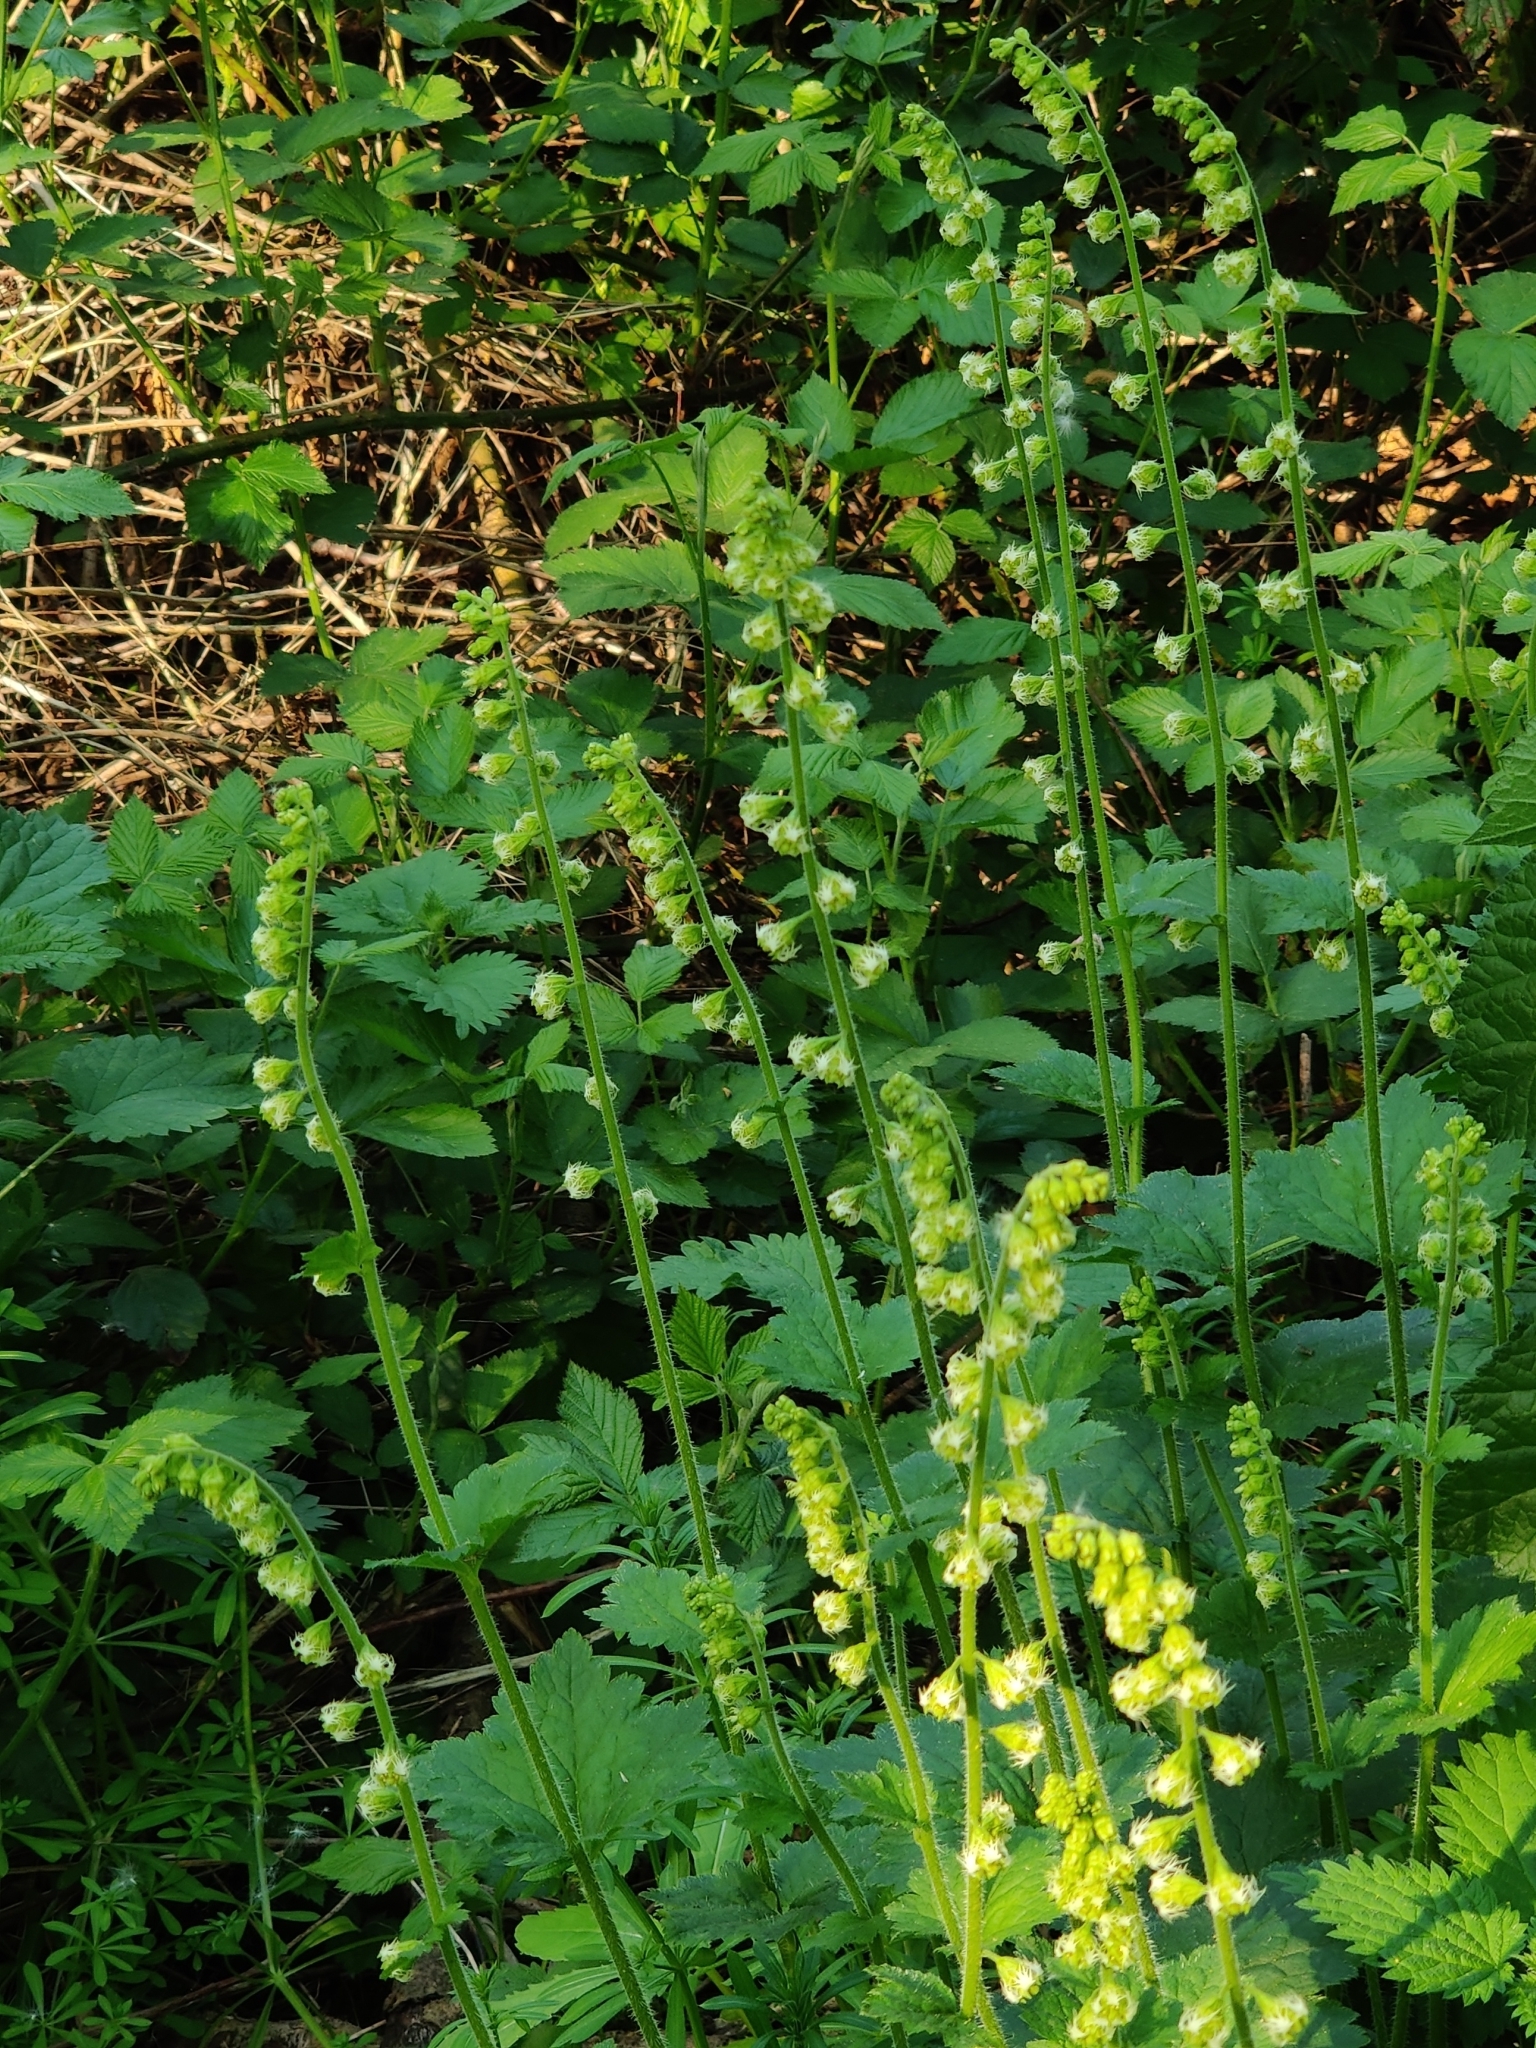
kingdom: Plantae
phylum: Tracheophyta
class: Magnoliopsida
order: Saxifragales
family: Saxifragaceae
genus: Tellima
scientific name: Tellima grandiflora
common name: Fringecups
